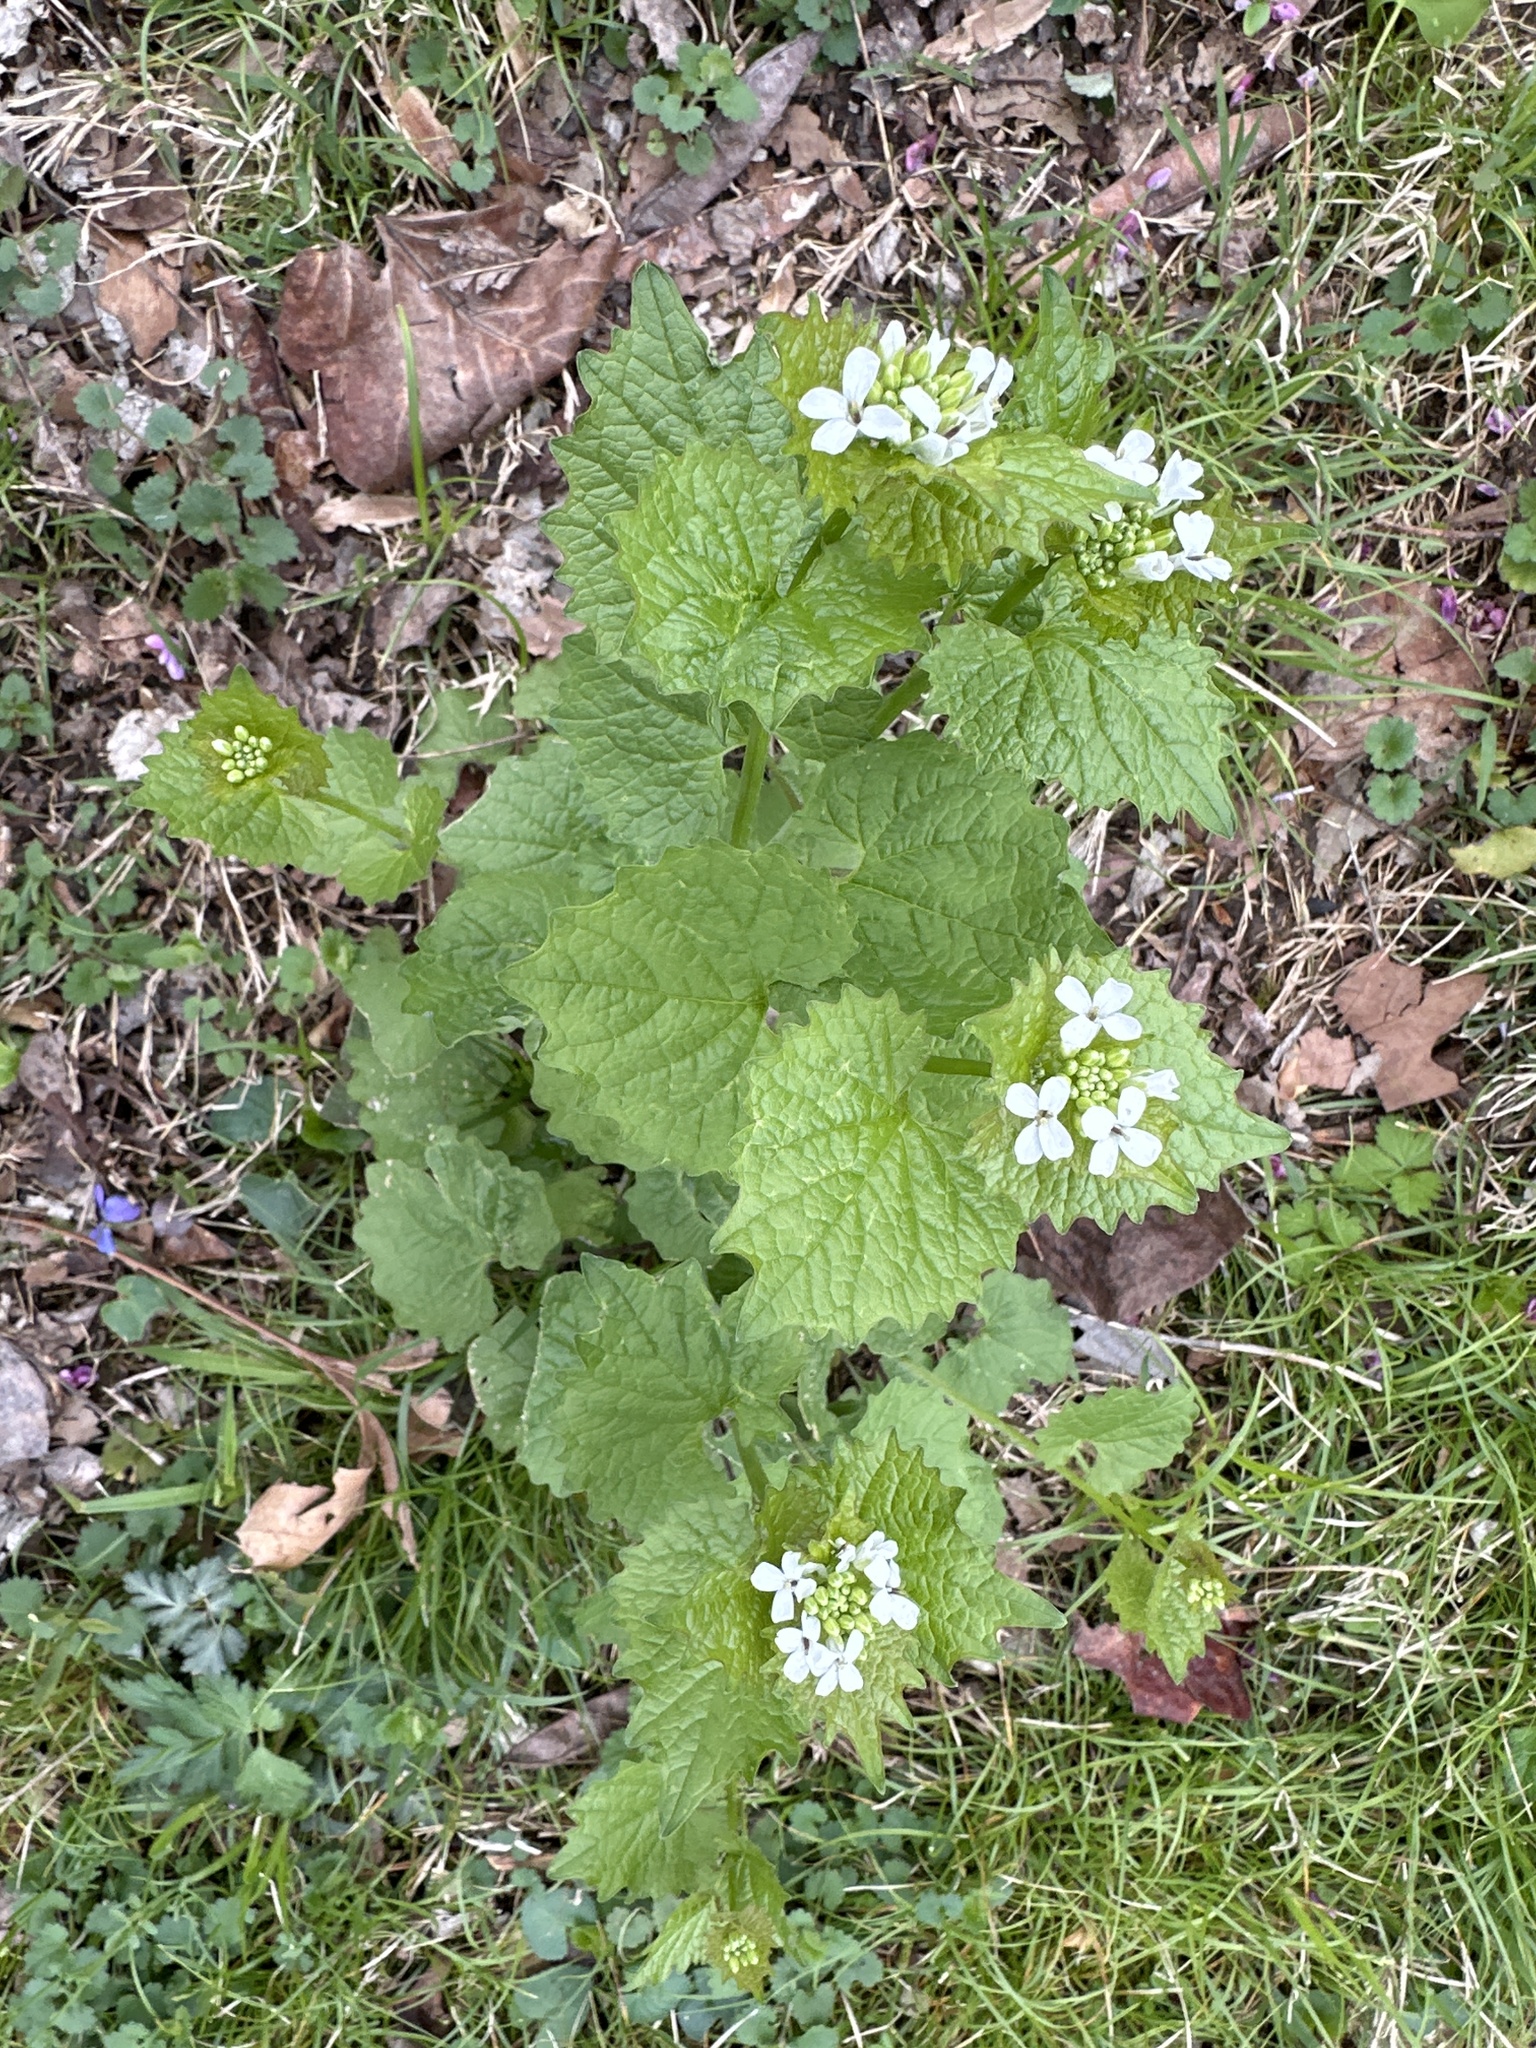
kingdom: Plantae
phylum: Tracheophyta
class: Magnoliopsida
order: Brassicales
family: Brassicaceae
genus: Alliaria
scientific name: Alliaria petiolata
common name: Garlic mustard
